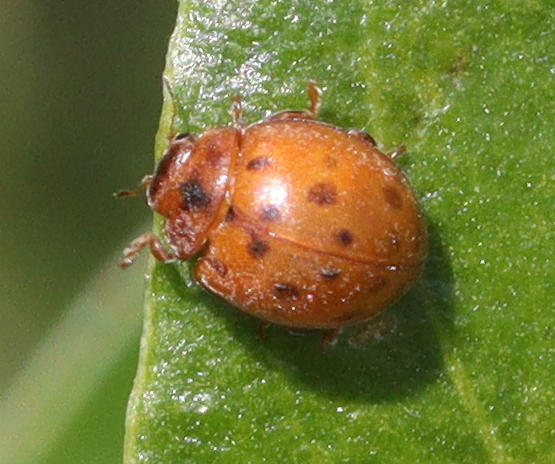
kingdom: Animalia
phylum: Arthropoda
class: Insecta
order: Coleoptera
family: Coccinellidae
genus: Subcoccinella
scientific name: Subcoccinella vigintiquatuorpunctata
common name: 24-spot ladybird
